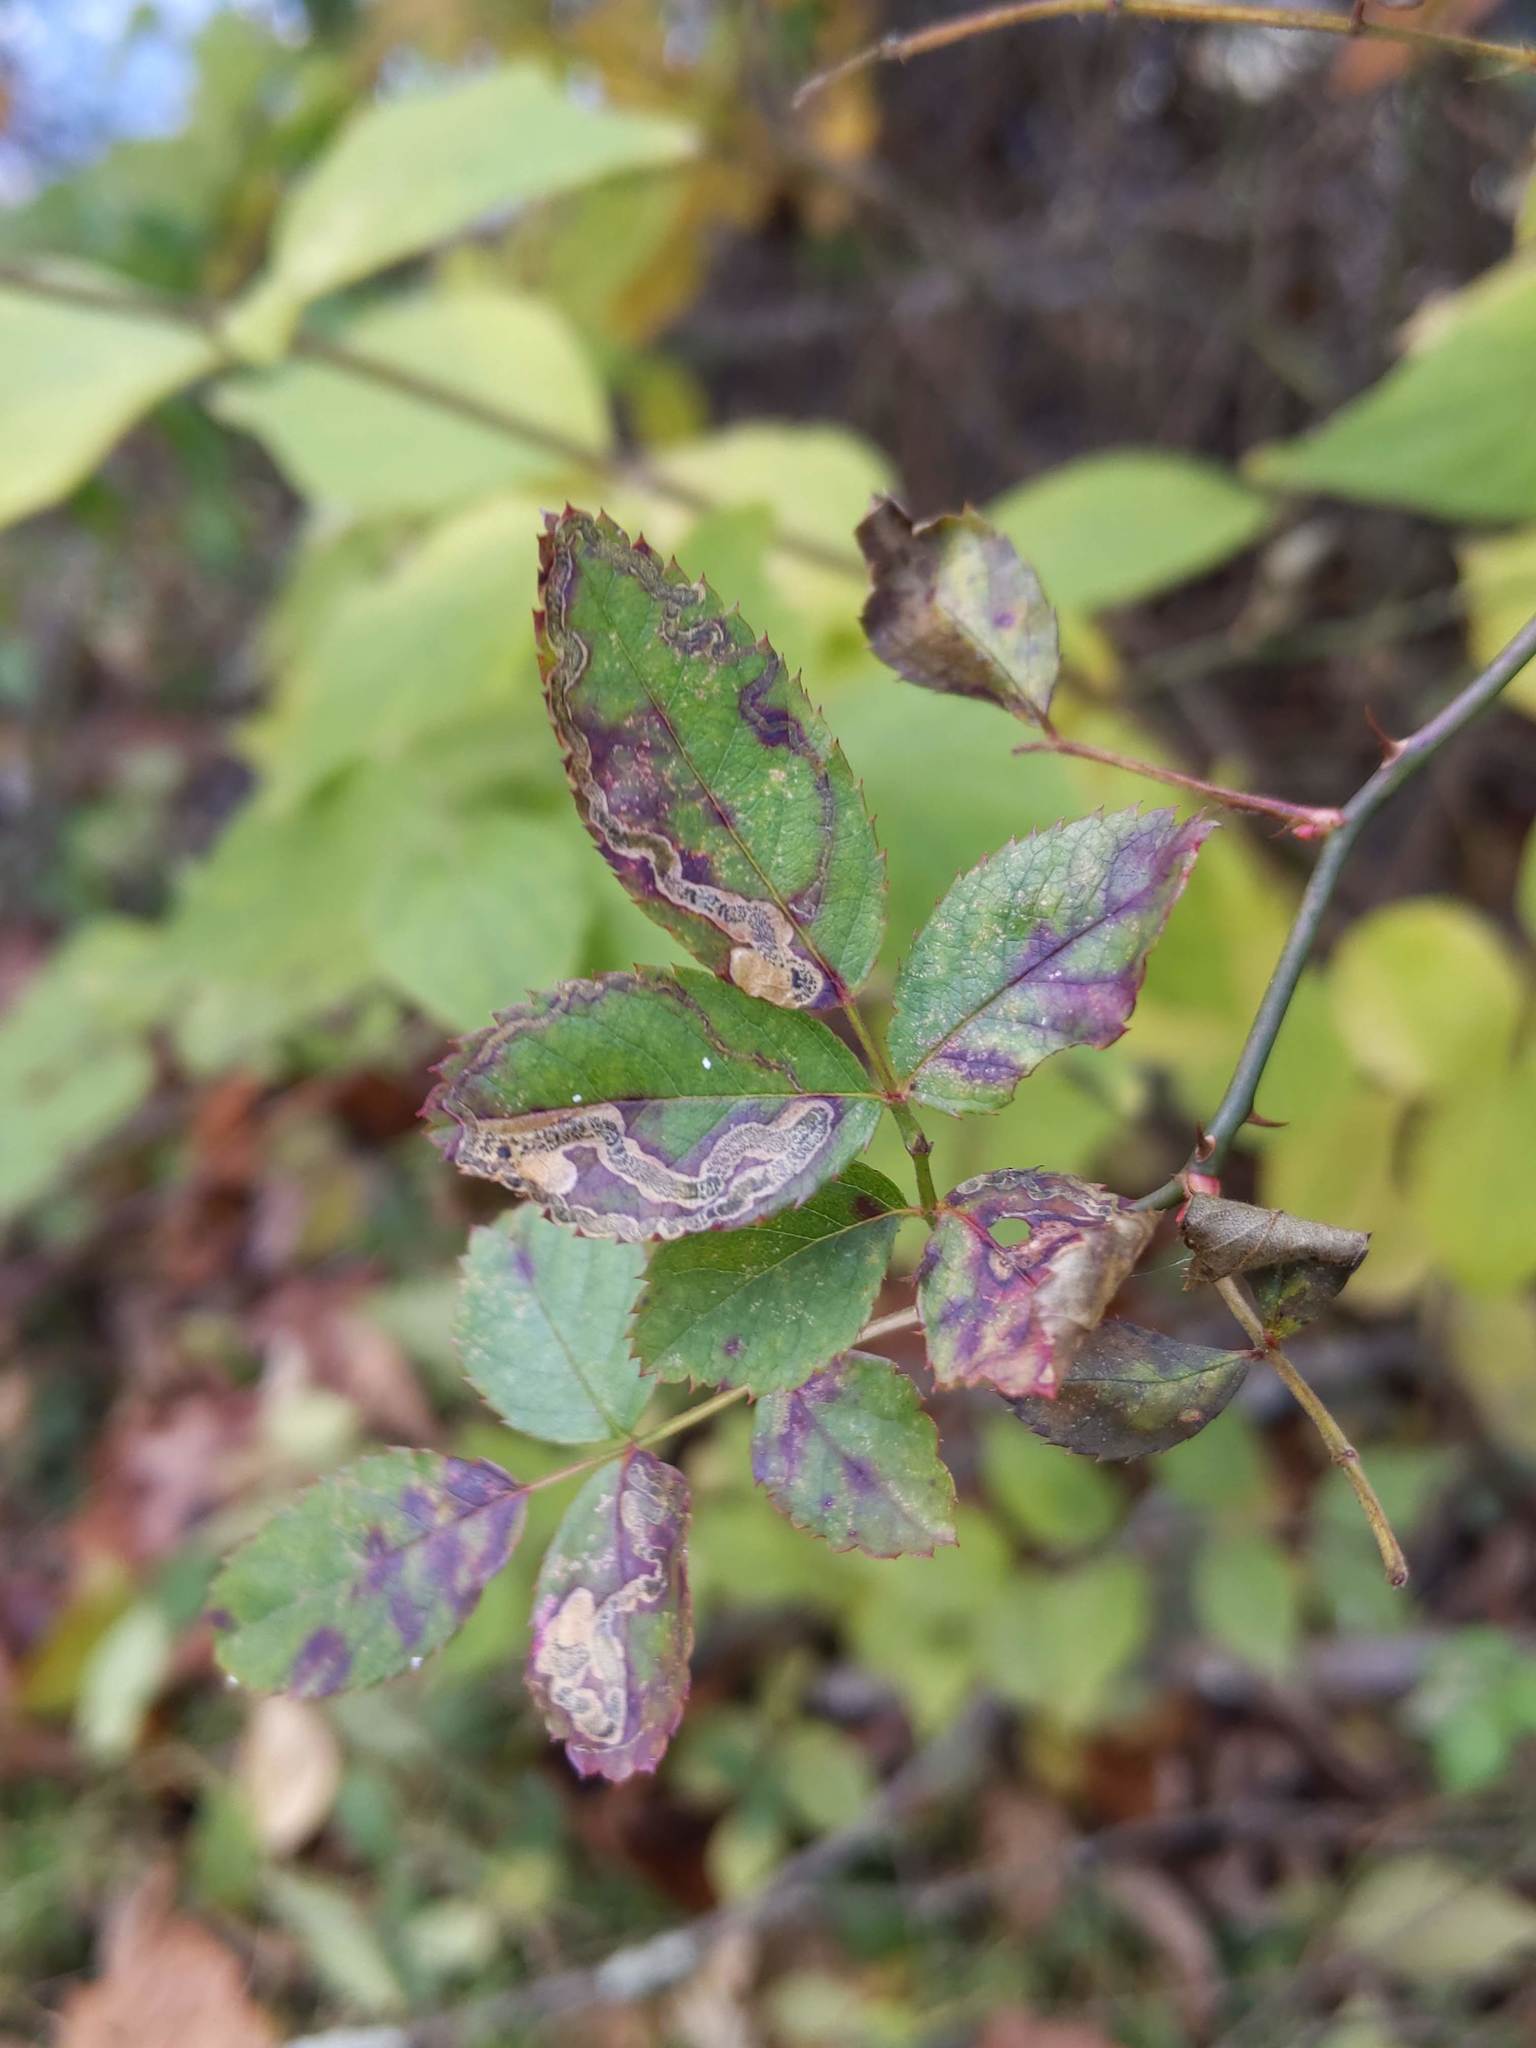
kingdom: Animalia
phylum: Arthropoda
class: Insecta
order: Lepidoptera
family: Nepticulidae
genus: Stigmella
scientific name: Stigmella rosaefoliella
